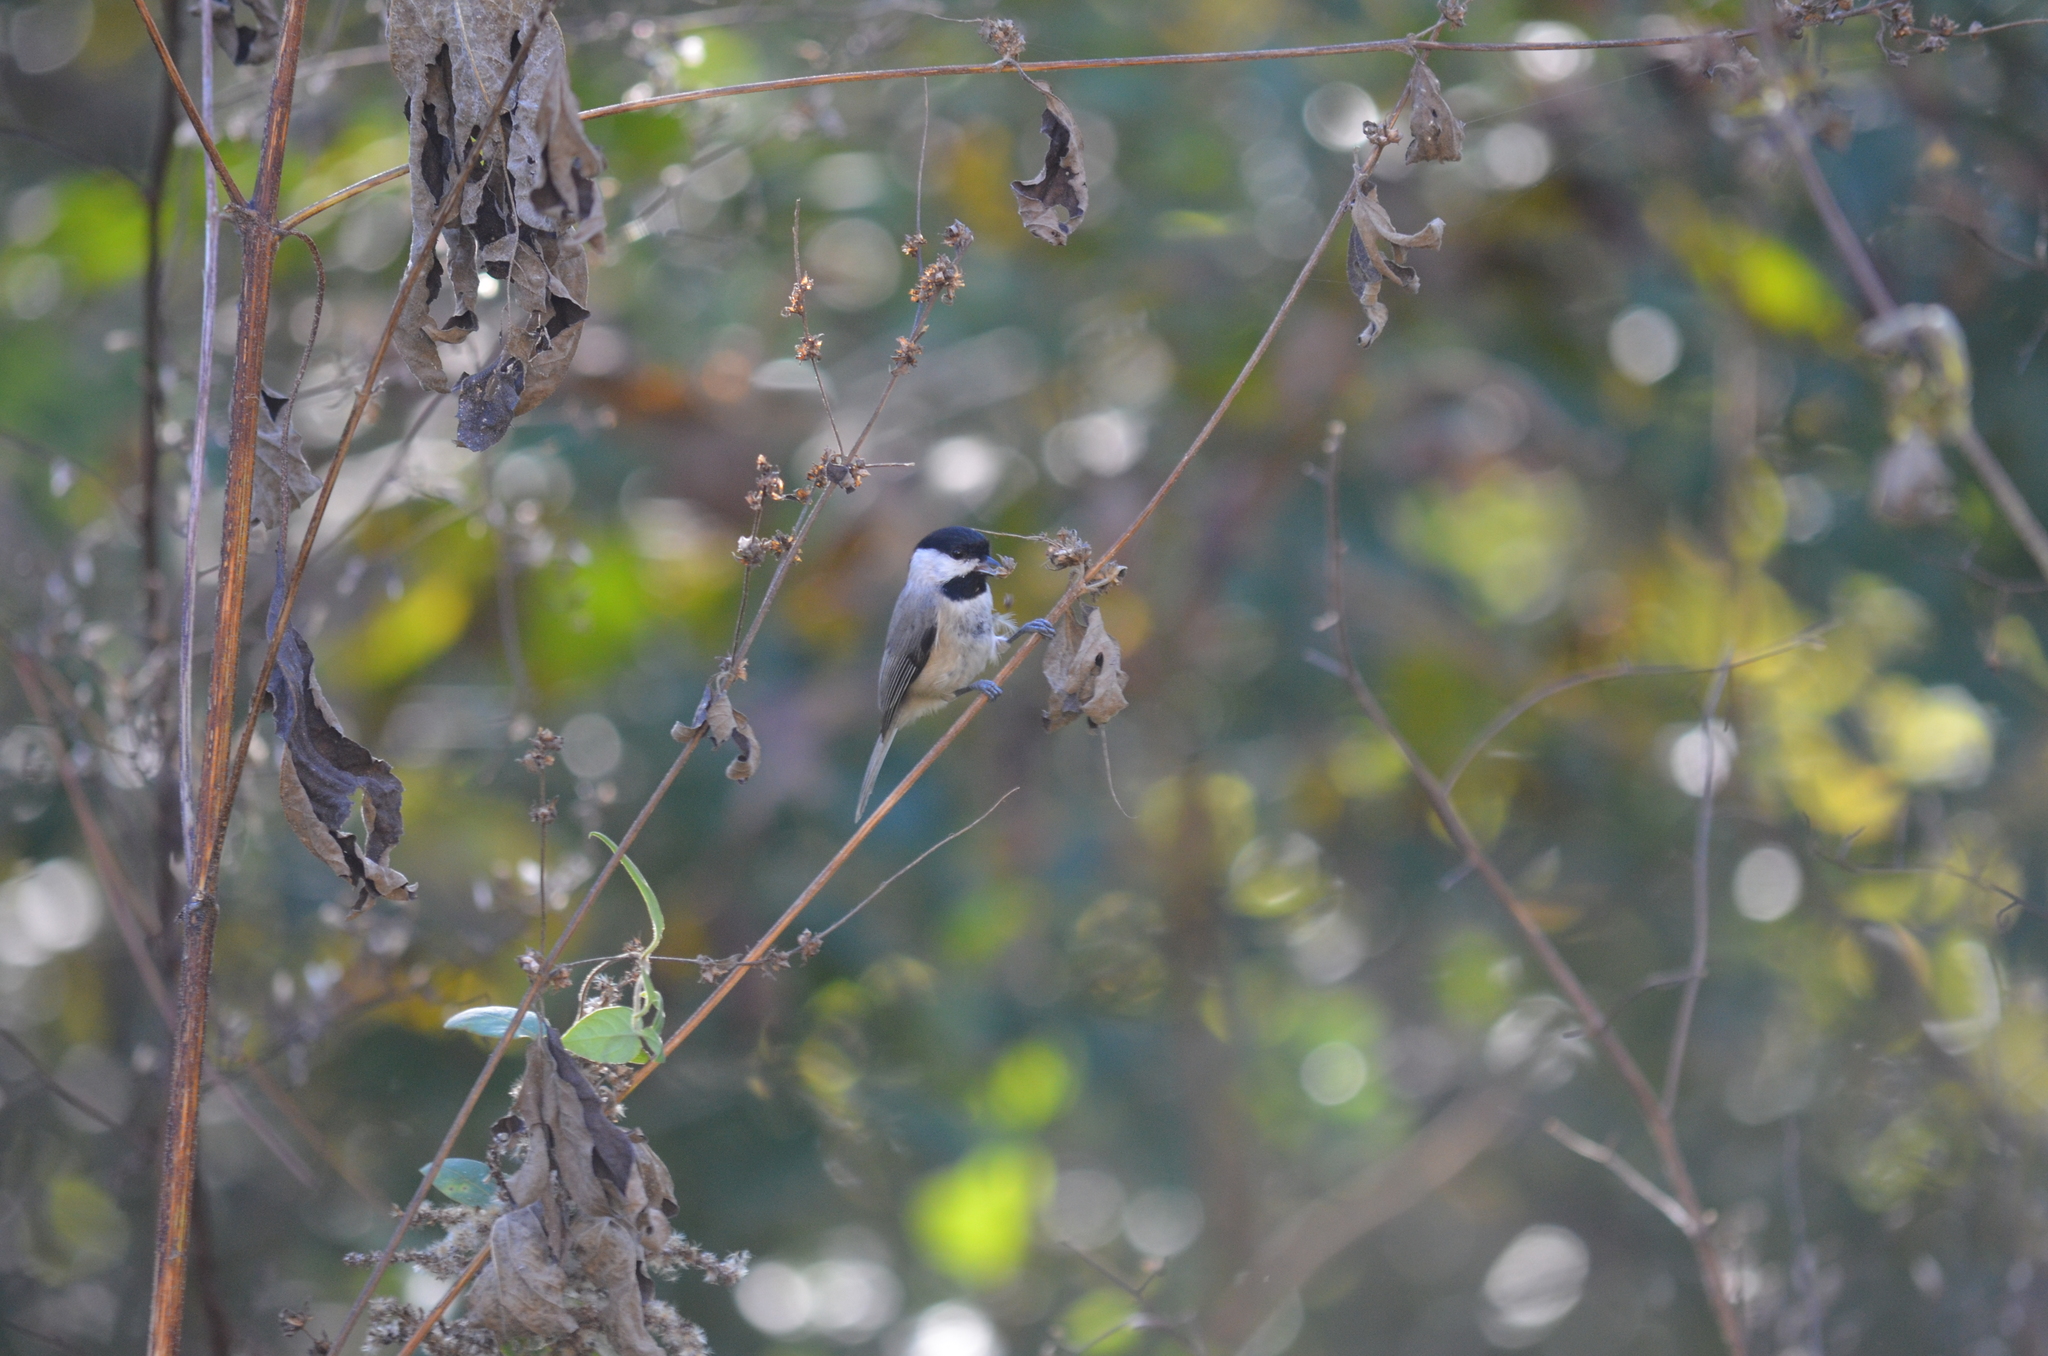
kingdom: Animalia
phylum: Chordata
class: Aves
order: Passeriformes
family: Paridae
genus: Poecile
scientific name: Poecile carolinensis
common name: Carolina chickadee
